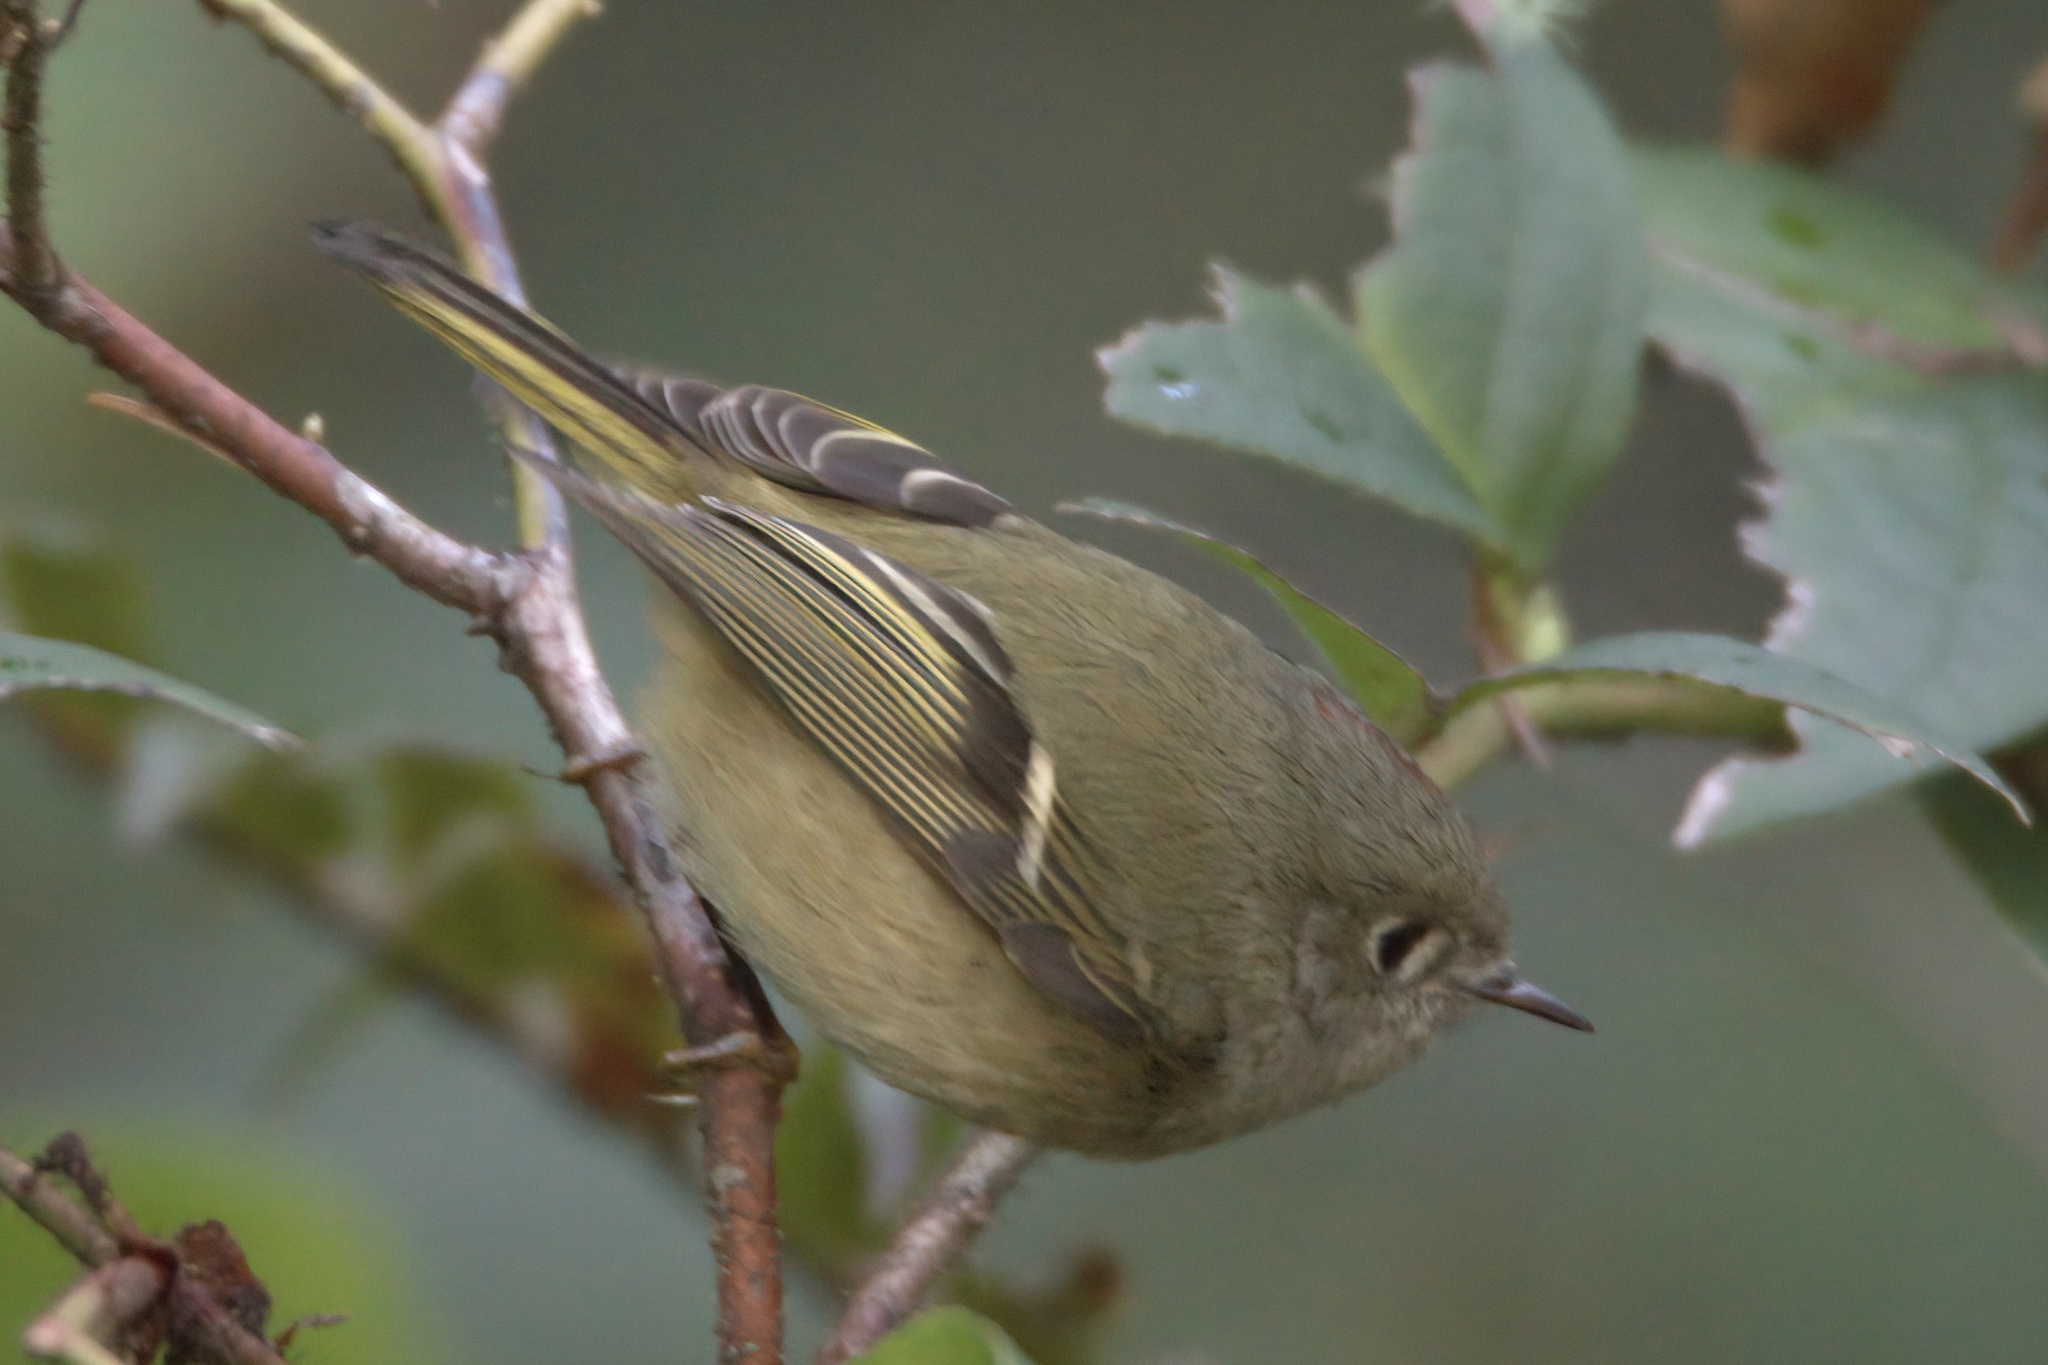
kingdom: Animalia
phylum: Chordata
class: Aves
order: Passeriformes
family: Regulidae
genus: Regulus
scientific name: Regulus calendula
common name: Ruby-crowned kinglet
